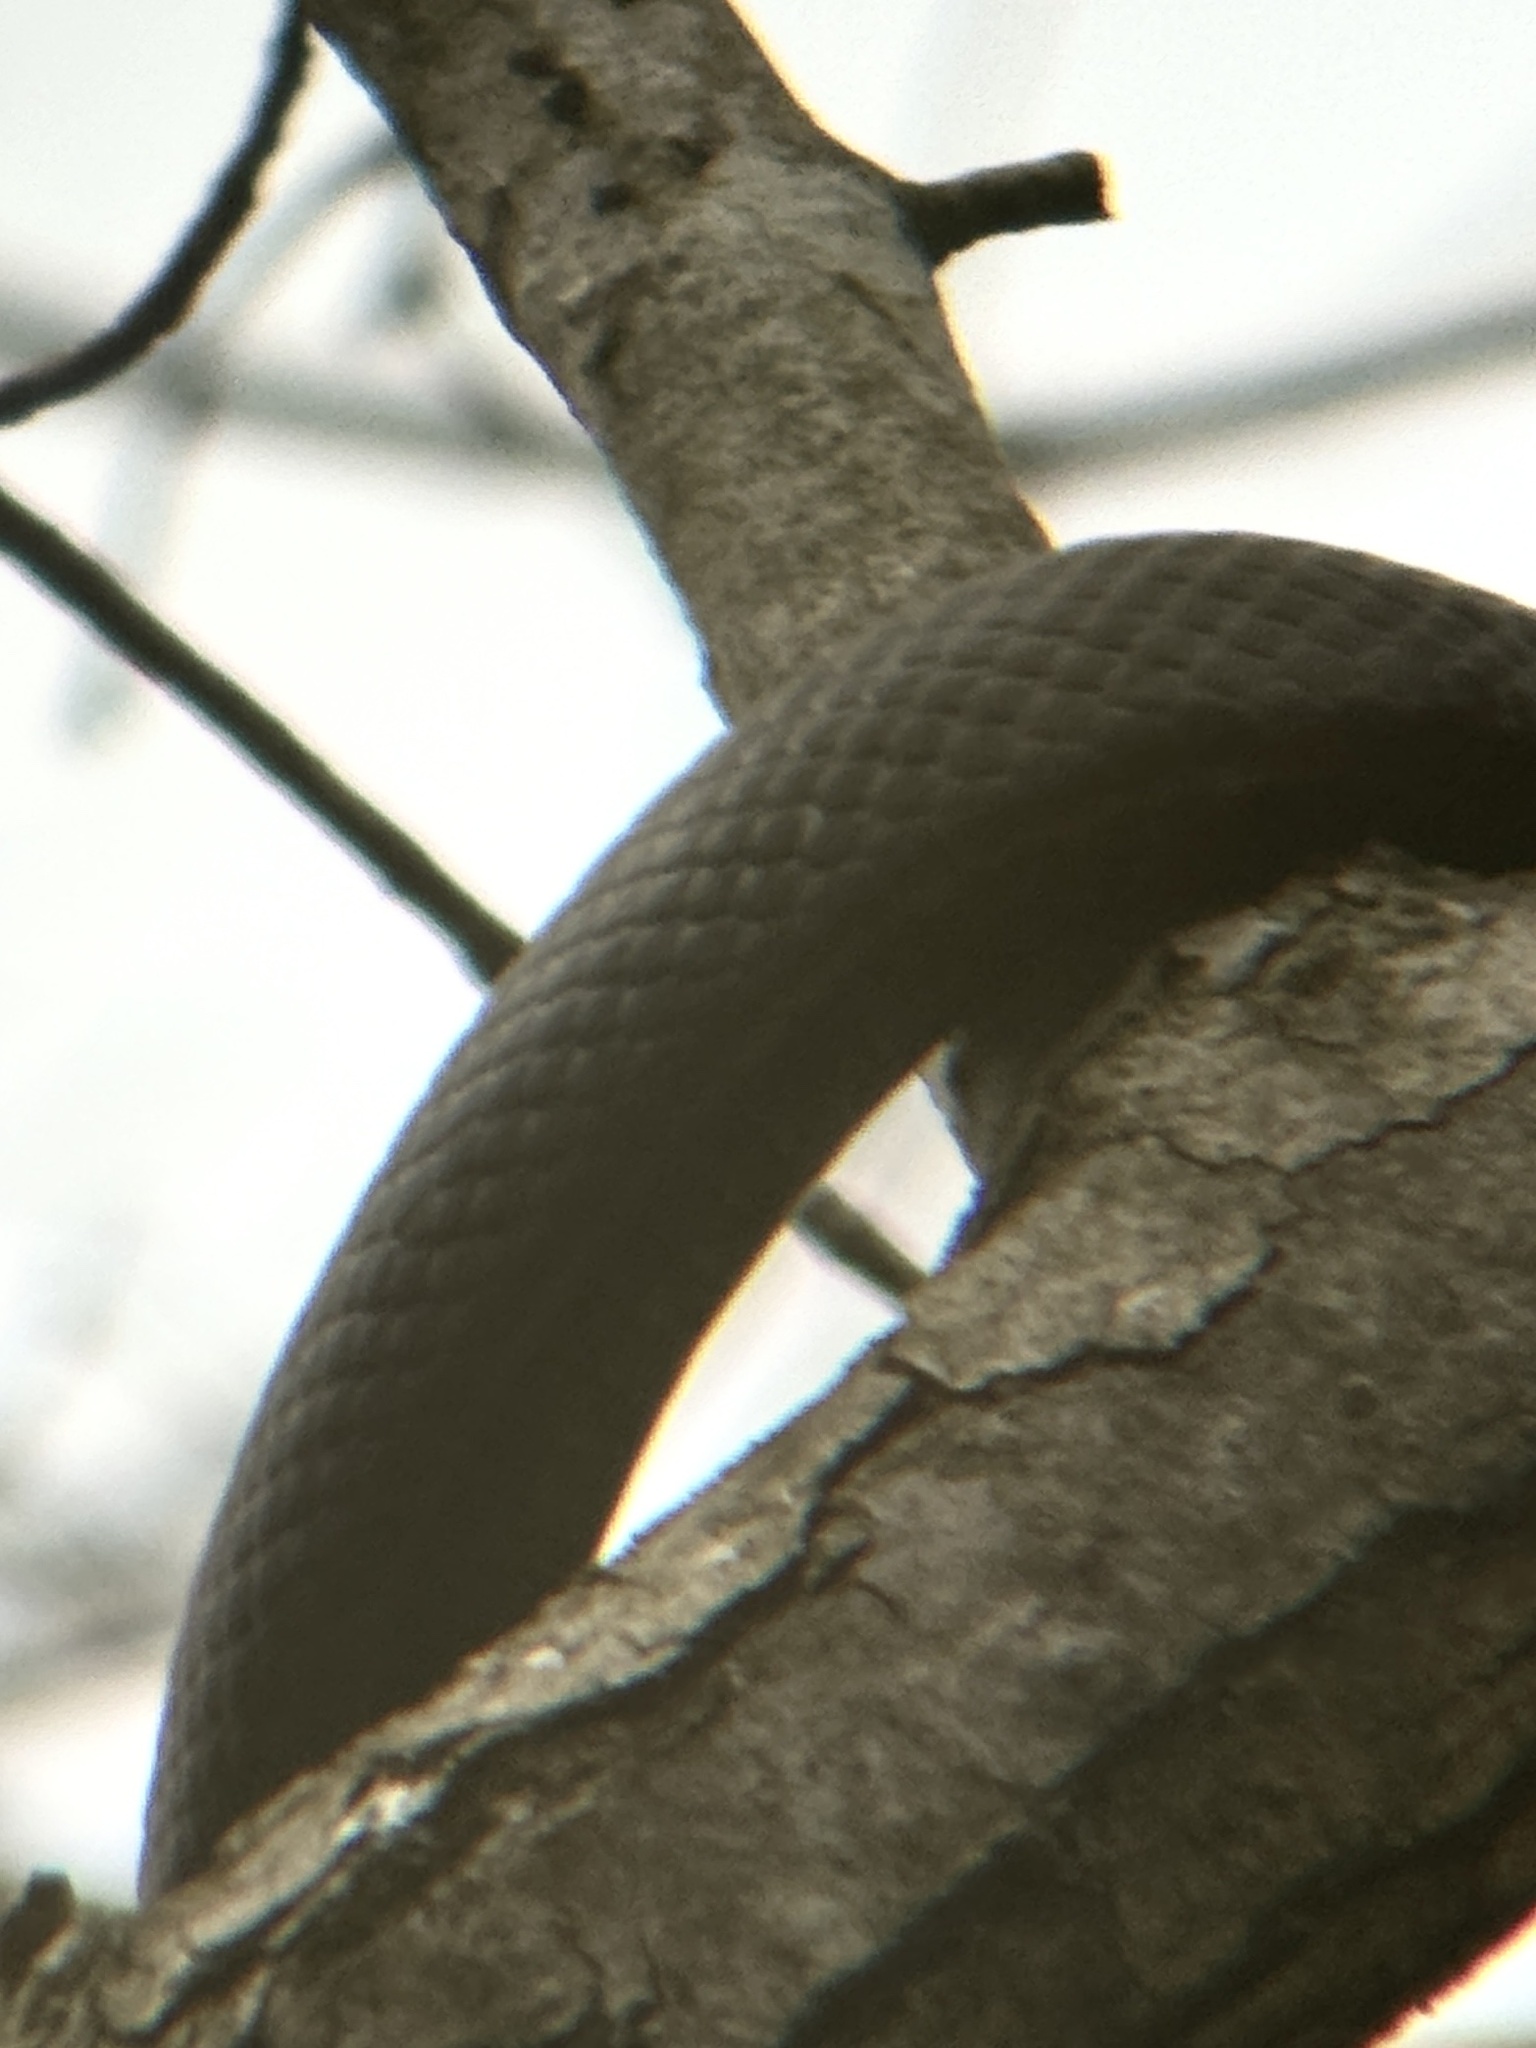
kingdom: Animalia
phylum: Chordata
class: Squamata
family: Colubridae
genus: Pantherophis
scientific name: Pantherophis
